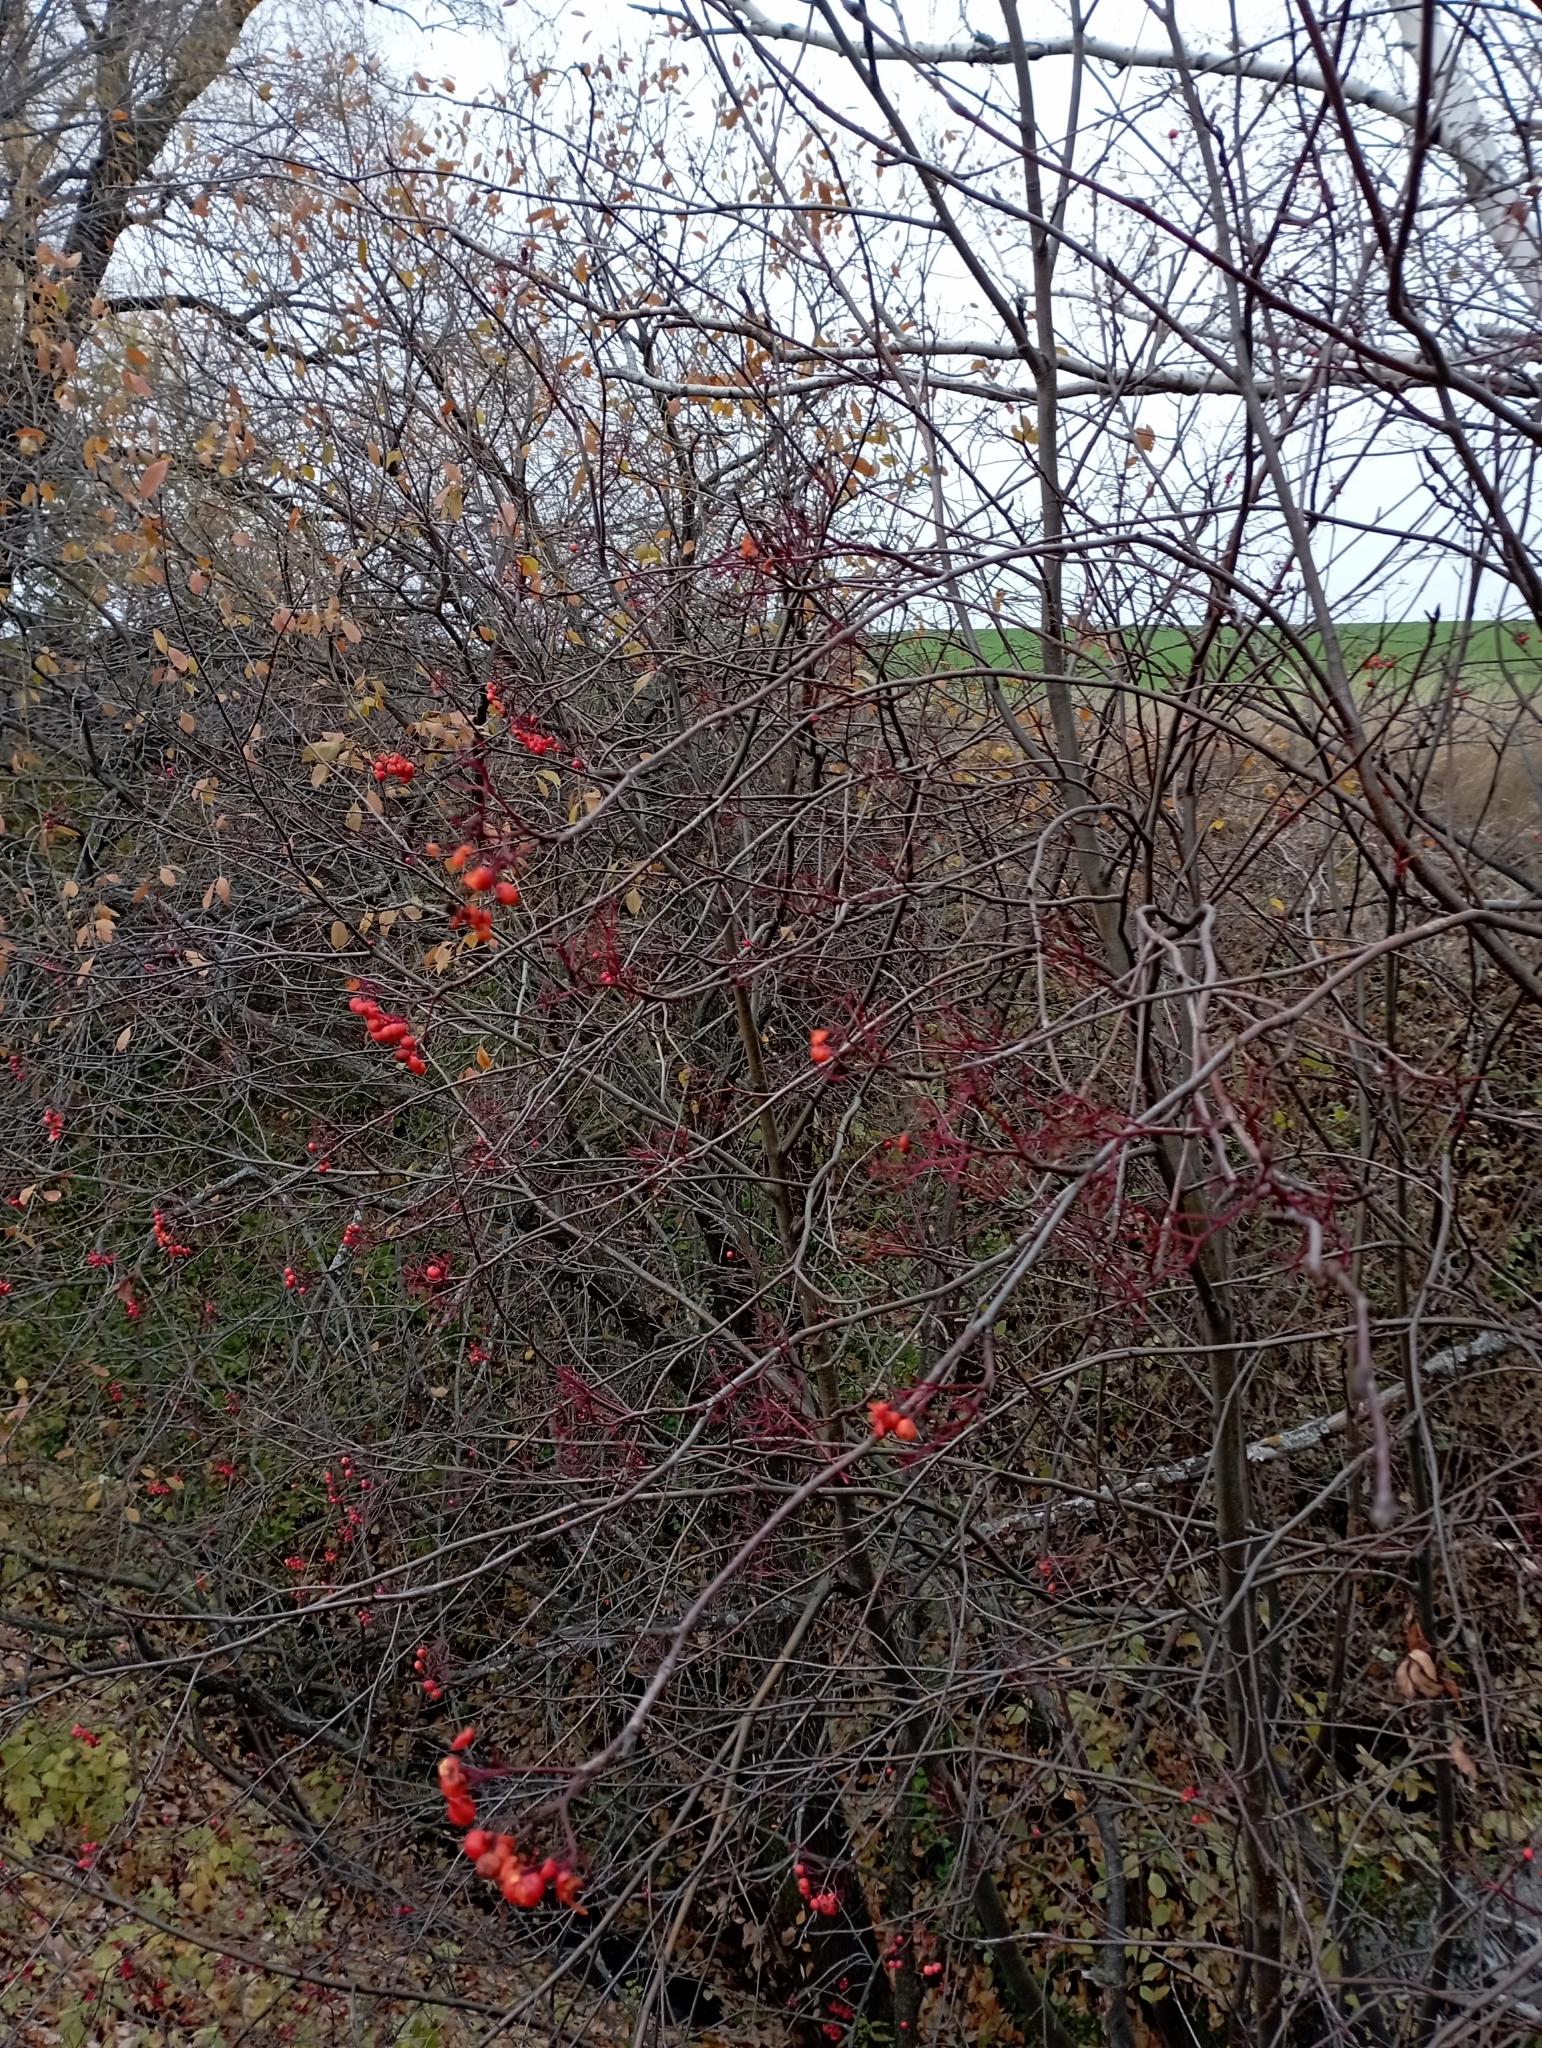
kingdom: Plantae
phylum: Tracheophyta
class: Magnoliopsida
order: Rosales
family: Rosaceae
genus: Sorbus
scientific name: Sorbus aucuparia
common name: Rowan
